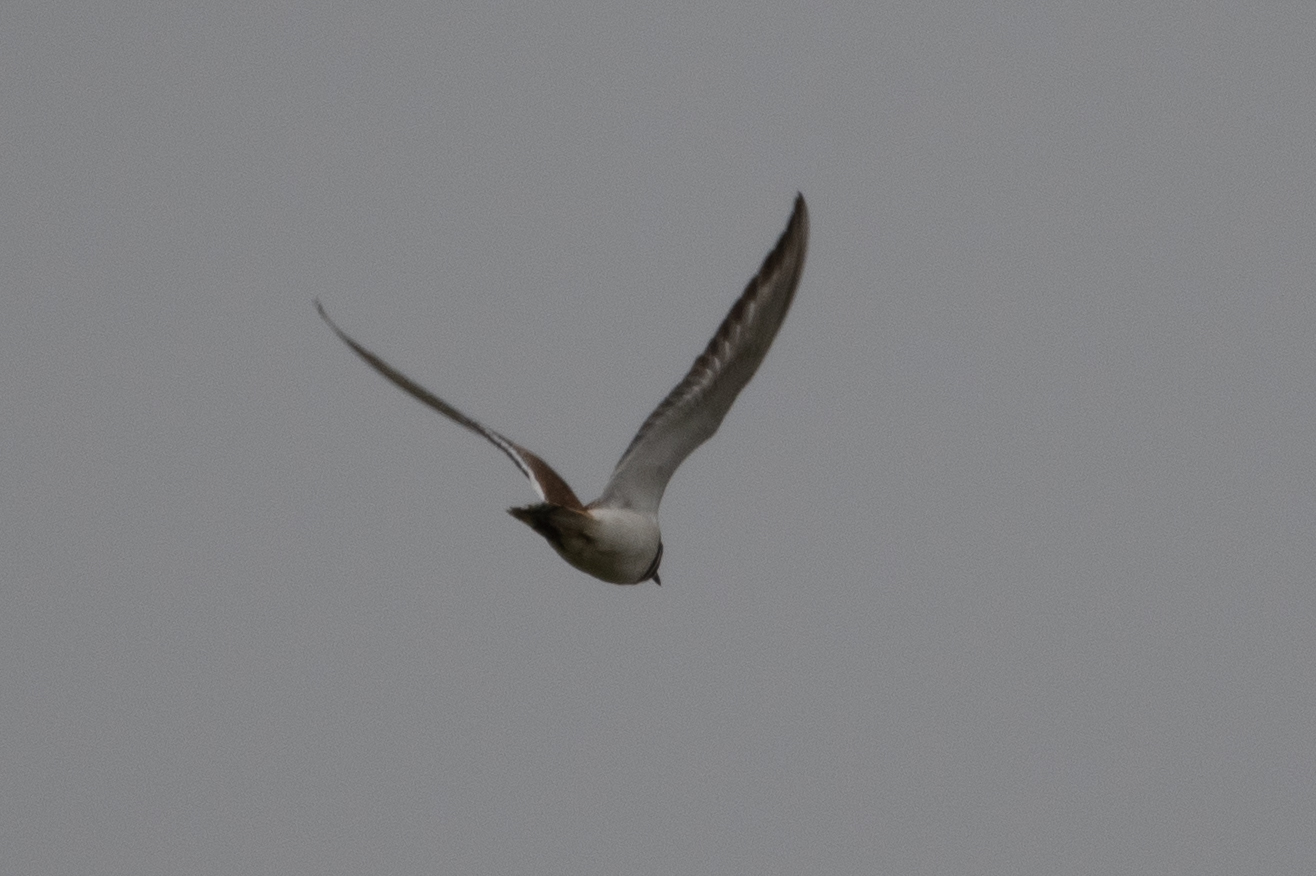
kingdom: Animalia
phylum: Chordata
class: Aves
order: Charadriiformes
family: Charadriidae
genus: Charadrius
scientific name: Charadrius vociferus
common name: Killdeer
